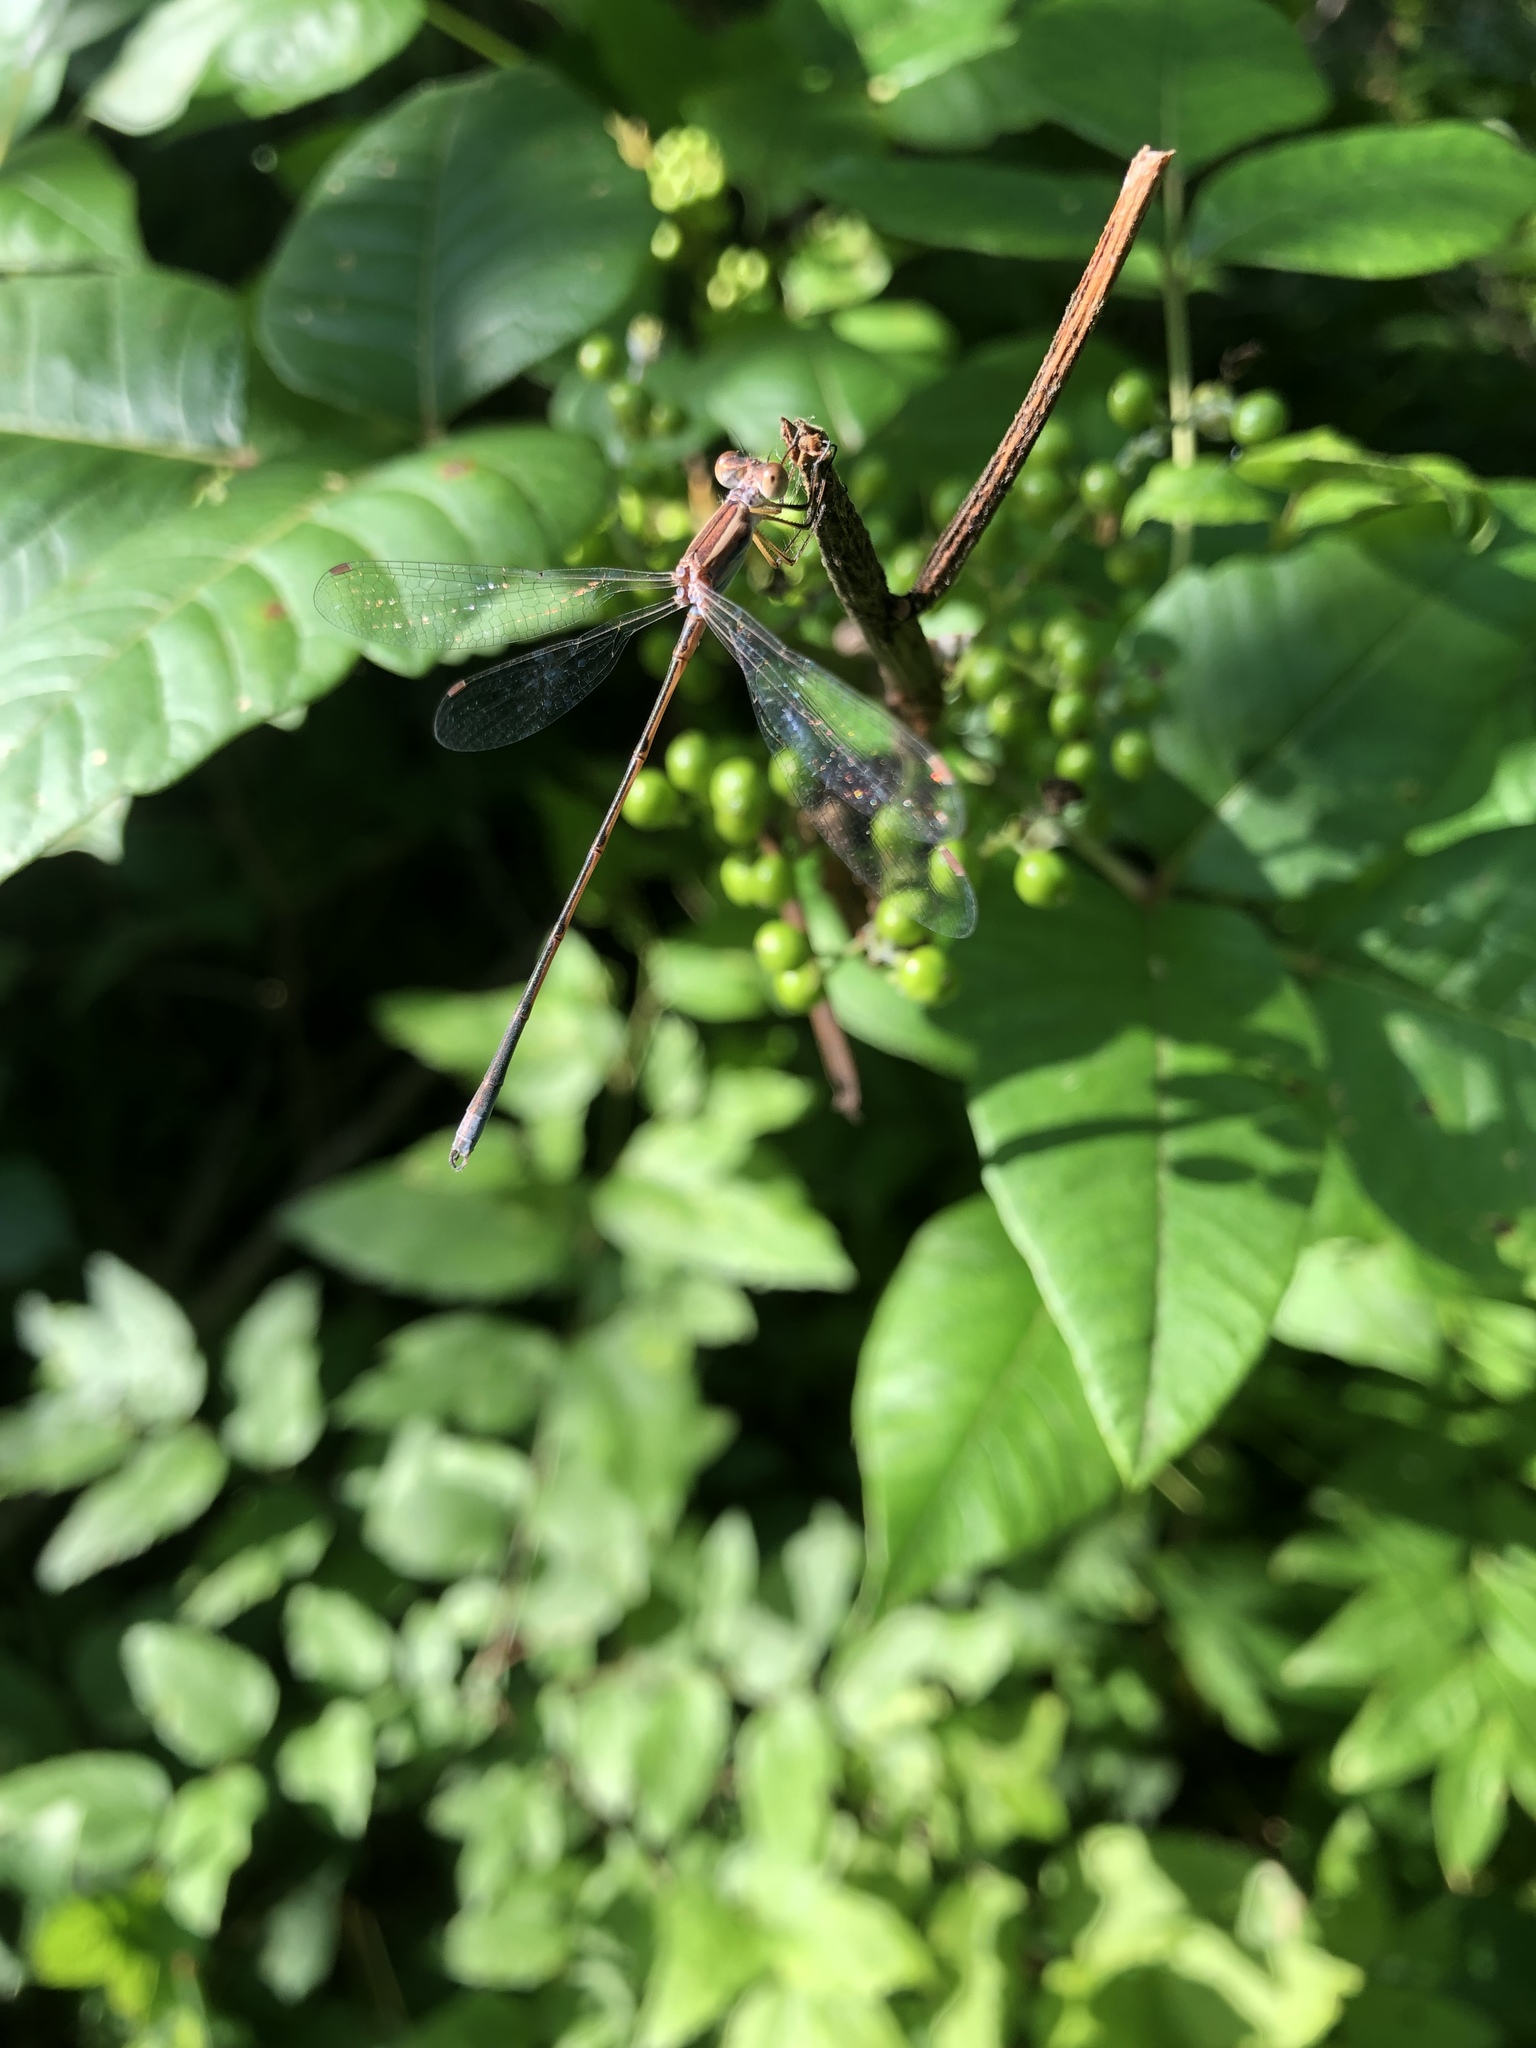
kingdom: Animalia
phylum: Arthropoda
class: Insecta
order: Odonata
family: Lestidae
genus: Lestes
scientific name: Lestes alacer
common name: Plateau spreadwing
